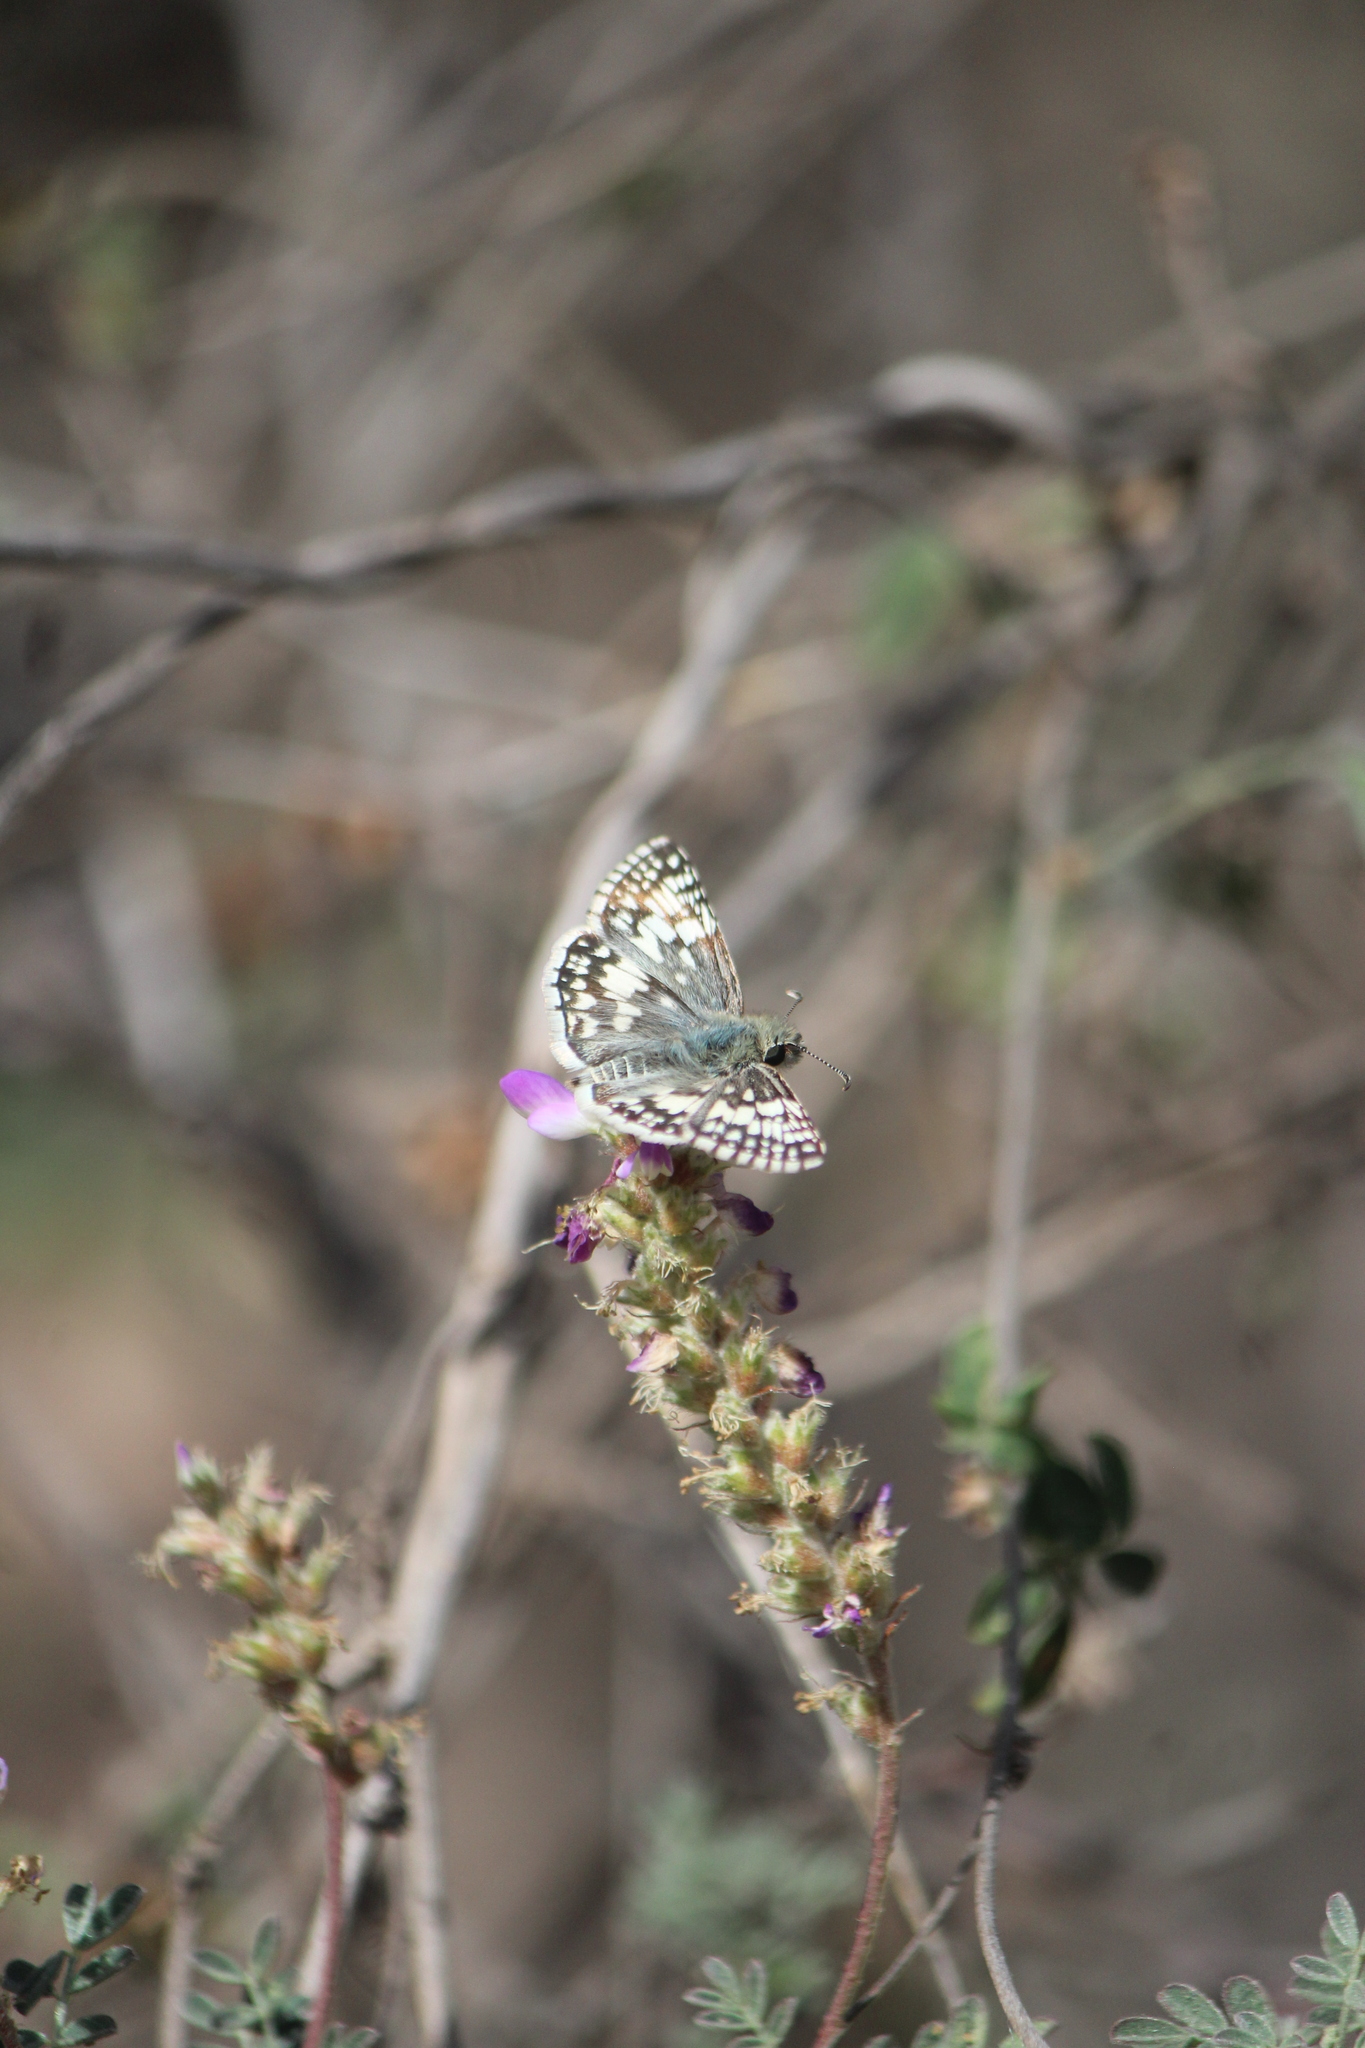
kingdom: Animalia
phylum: Arthropoda
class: Insecta
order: Lepidoptera
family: Hesperiidae
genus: Burnsius
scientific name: Burnsius albezens
